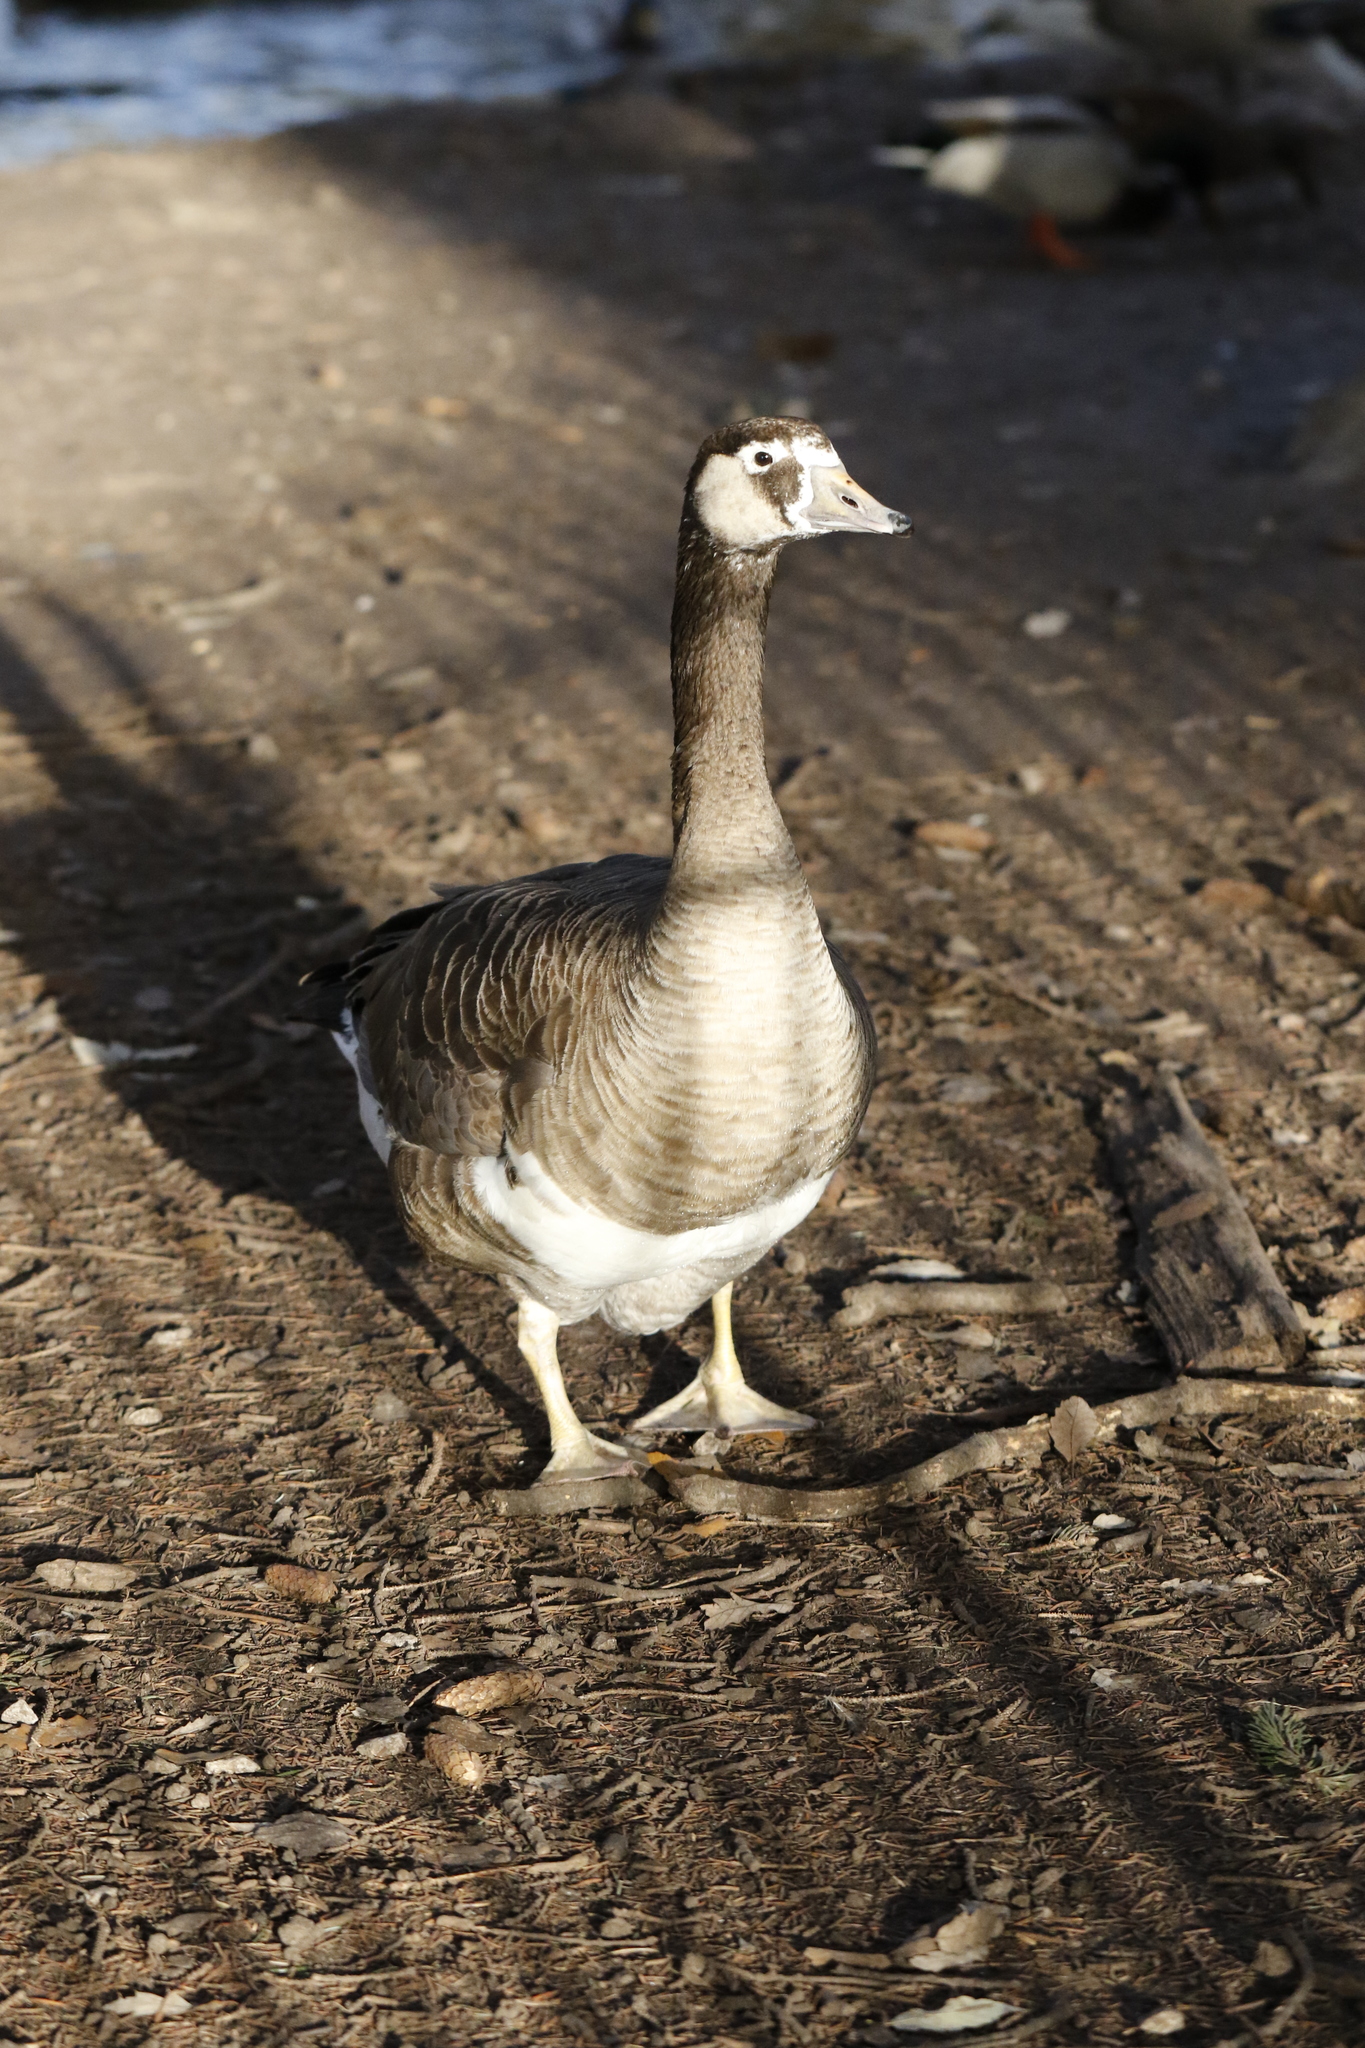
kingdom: Animalia
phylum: Chordata
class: Aves
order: Anseriformes
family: Anatidae
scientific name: Anatidae
